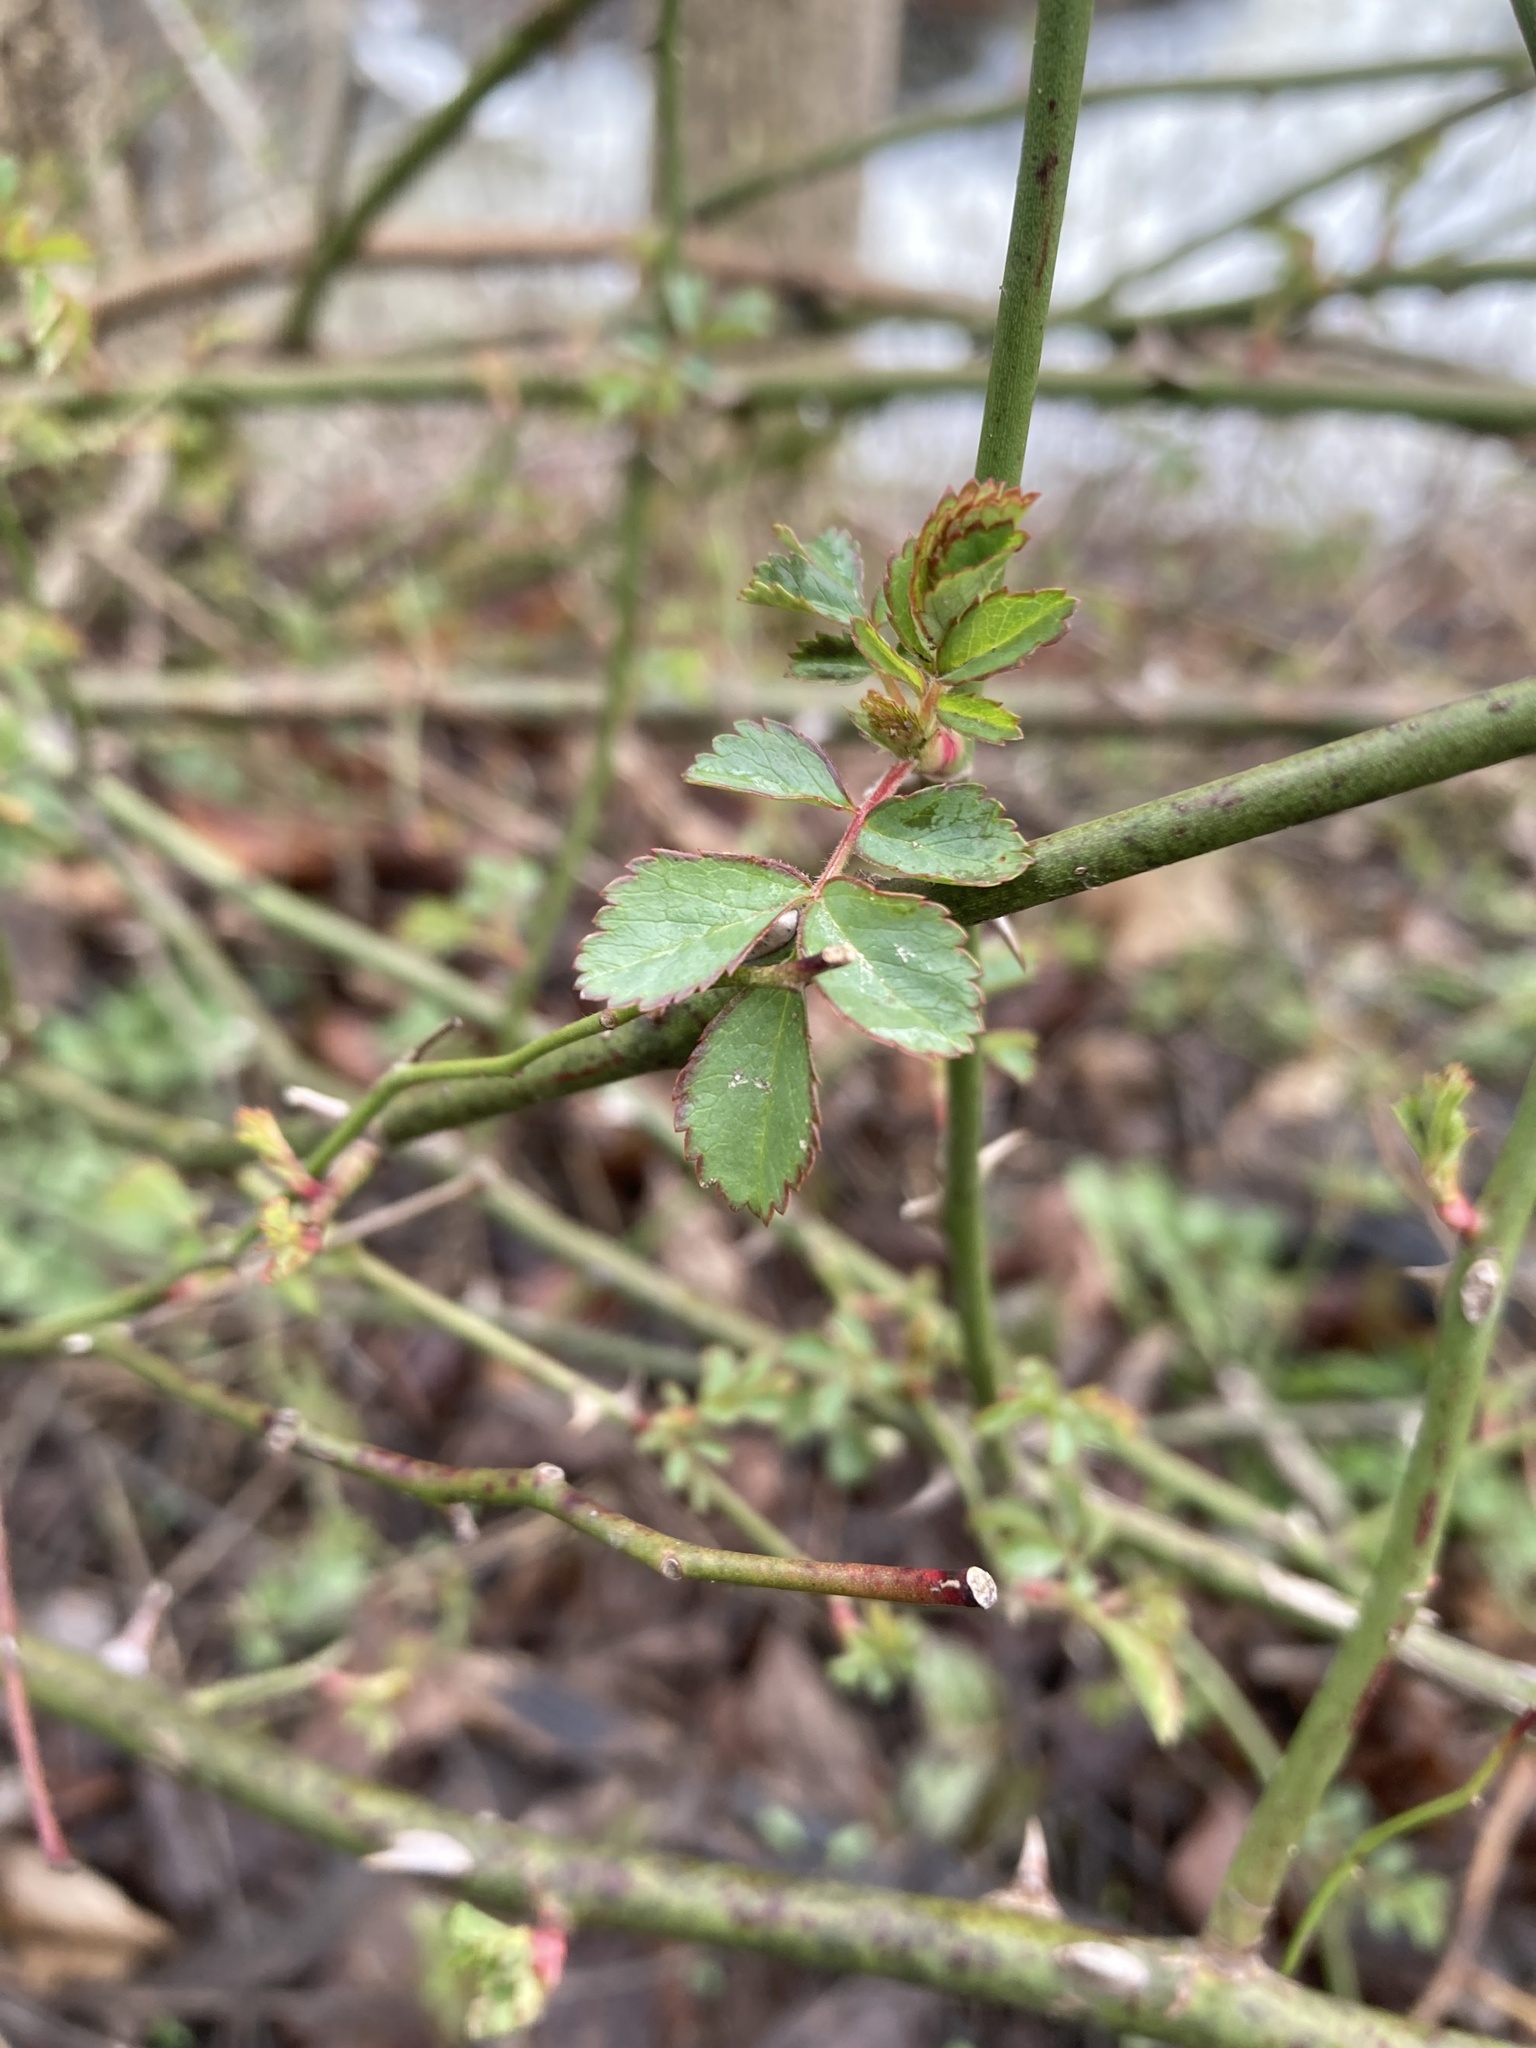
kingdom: Plantae
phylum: Tracheophyta
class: Magnoliopsida
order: Rosales
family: Rosaceae
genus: Rosa
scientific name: Rosa multiflora
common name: Multiflora rose
